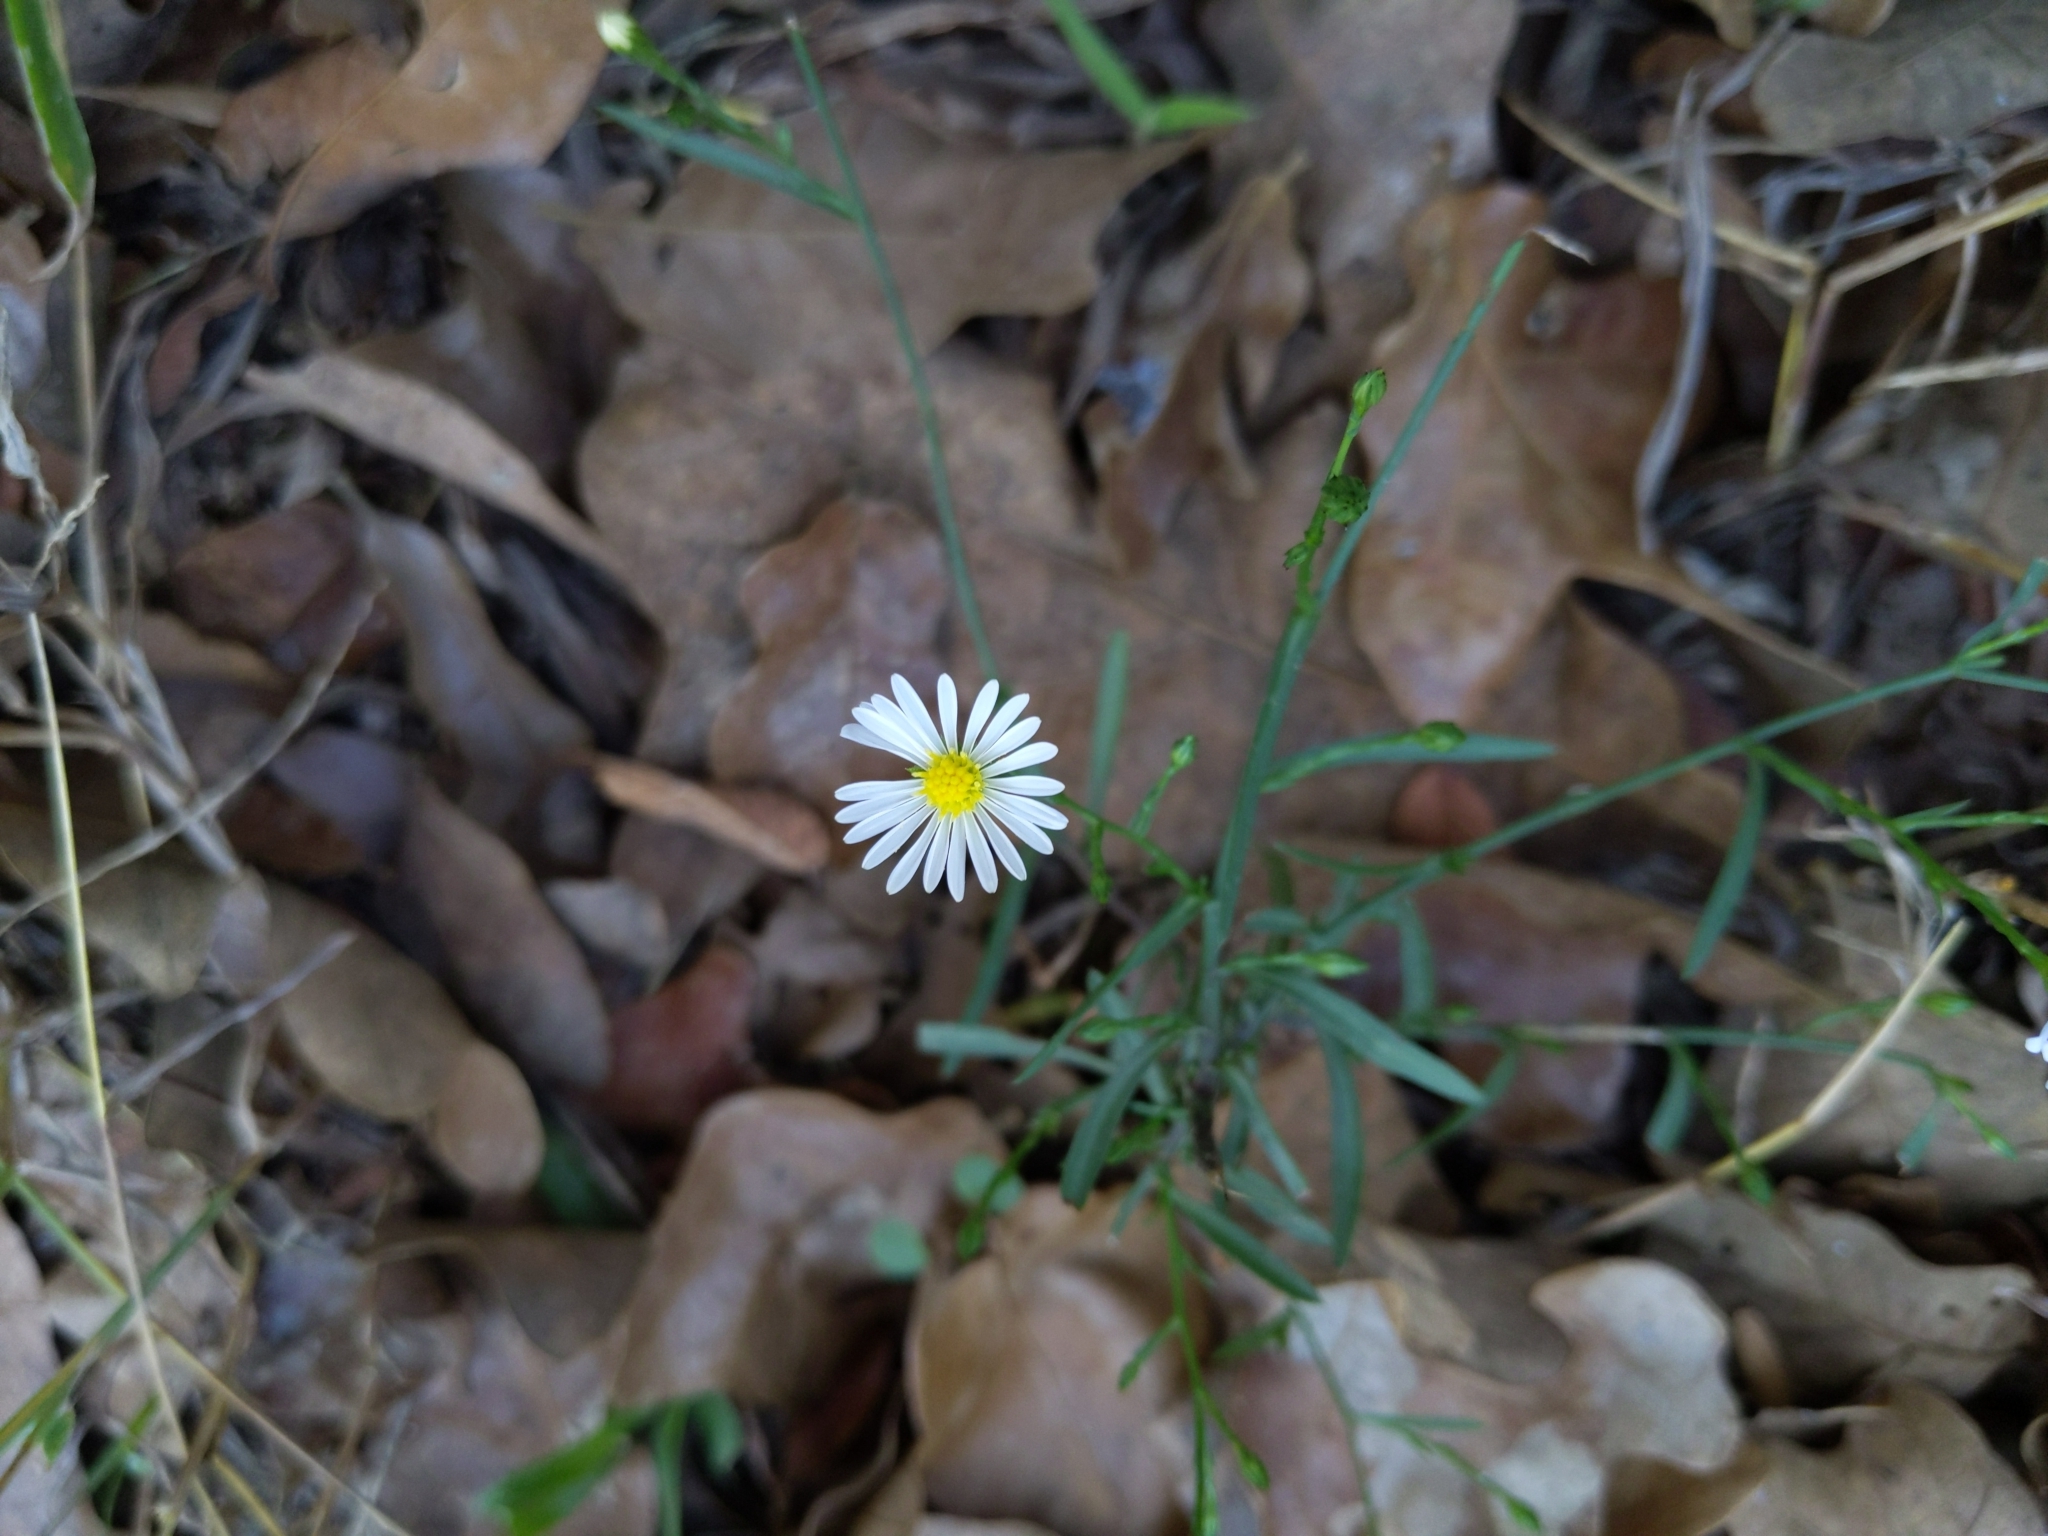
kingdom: Plantae
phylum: Tracheophyta
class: Magnoliopsida
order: Asterales
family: Asteraceae
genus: Symphyotrichum
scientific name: Symphyotrichum divaricatum
